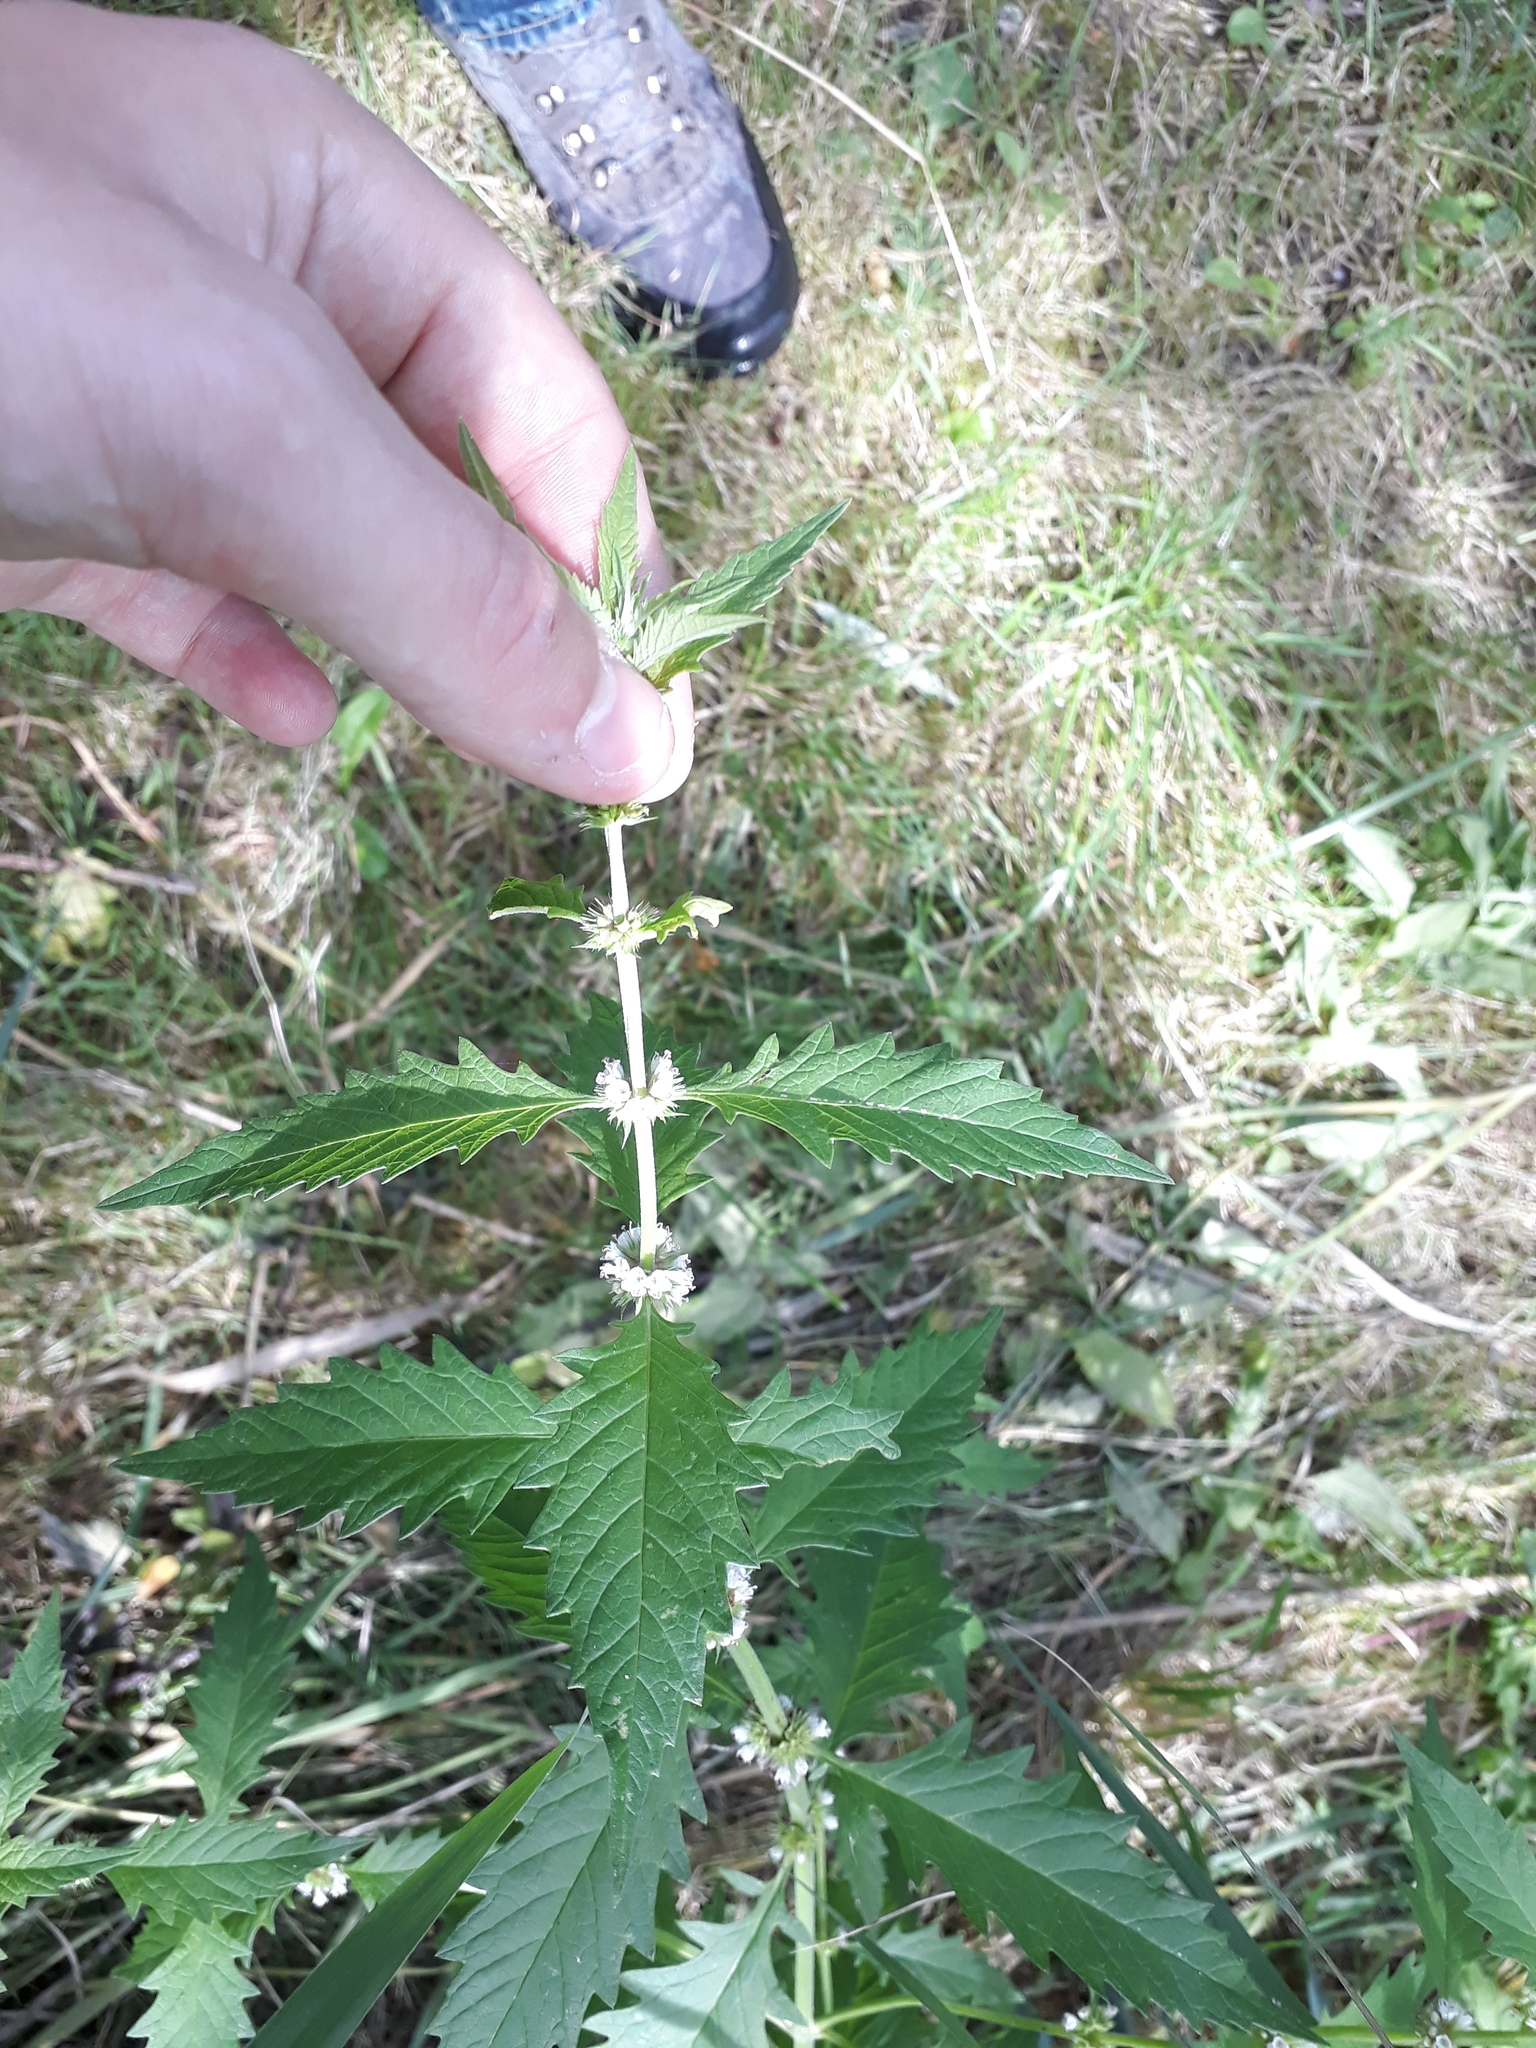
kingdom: Plantae
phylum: Tracheophyta
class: Magnoliopsida
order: Lamiales
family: Lamiaceae
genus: Lycopus
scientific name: Lycopus europaeus
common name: European bugleweed
